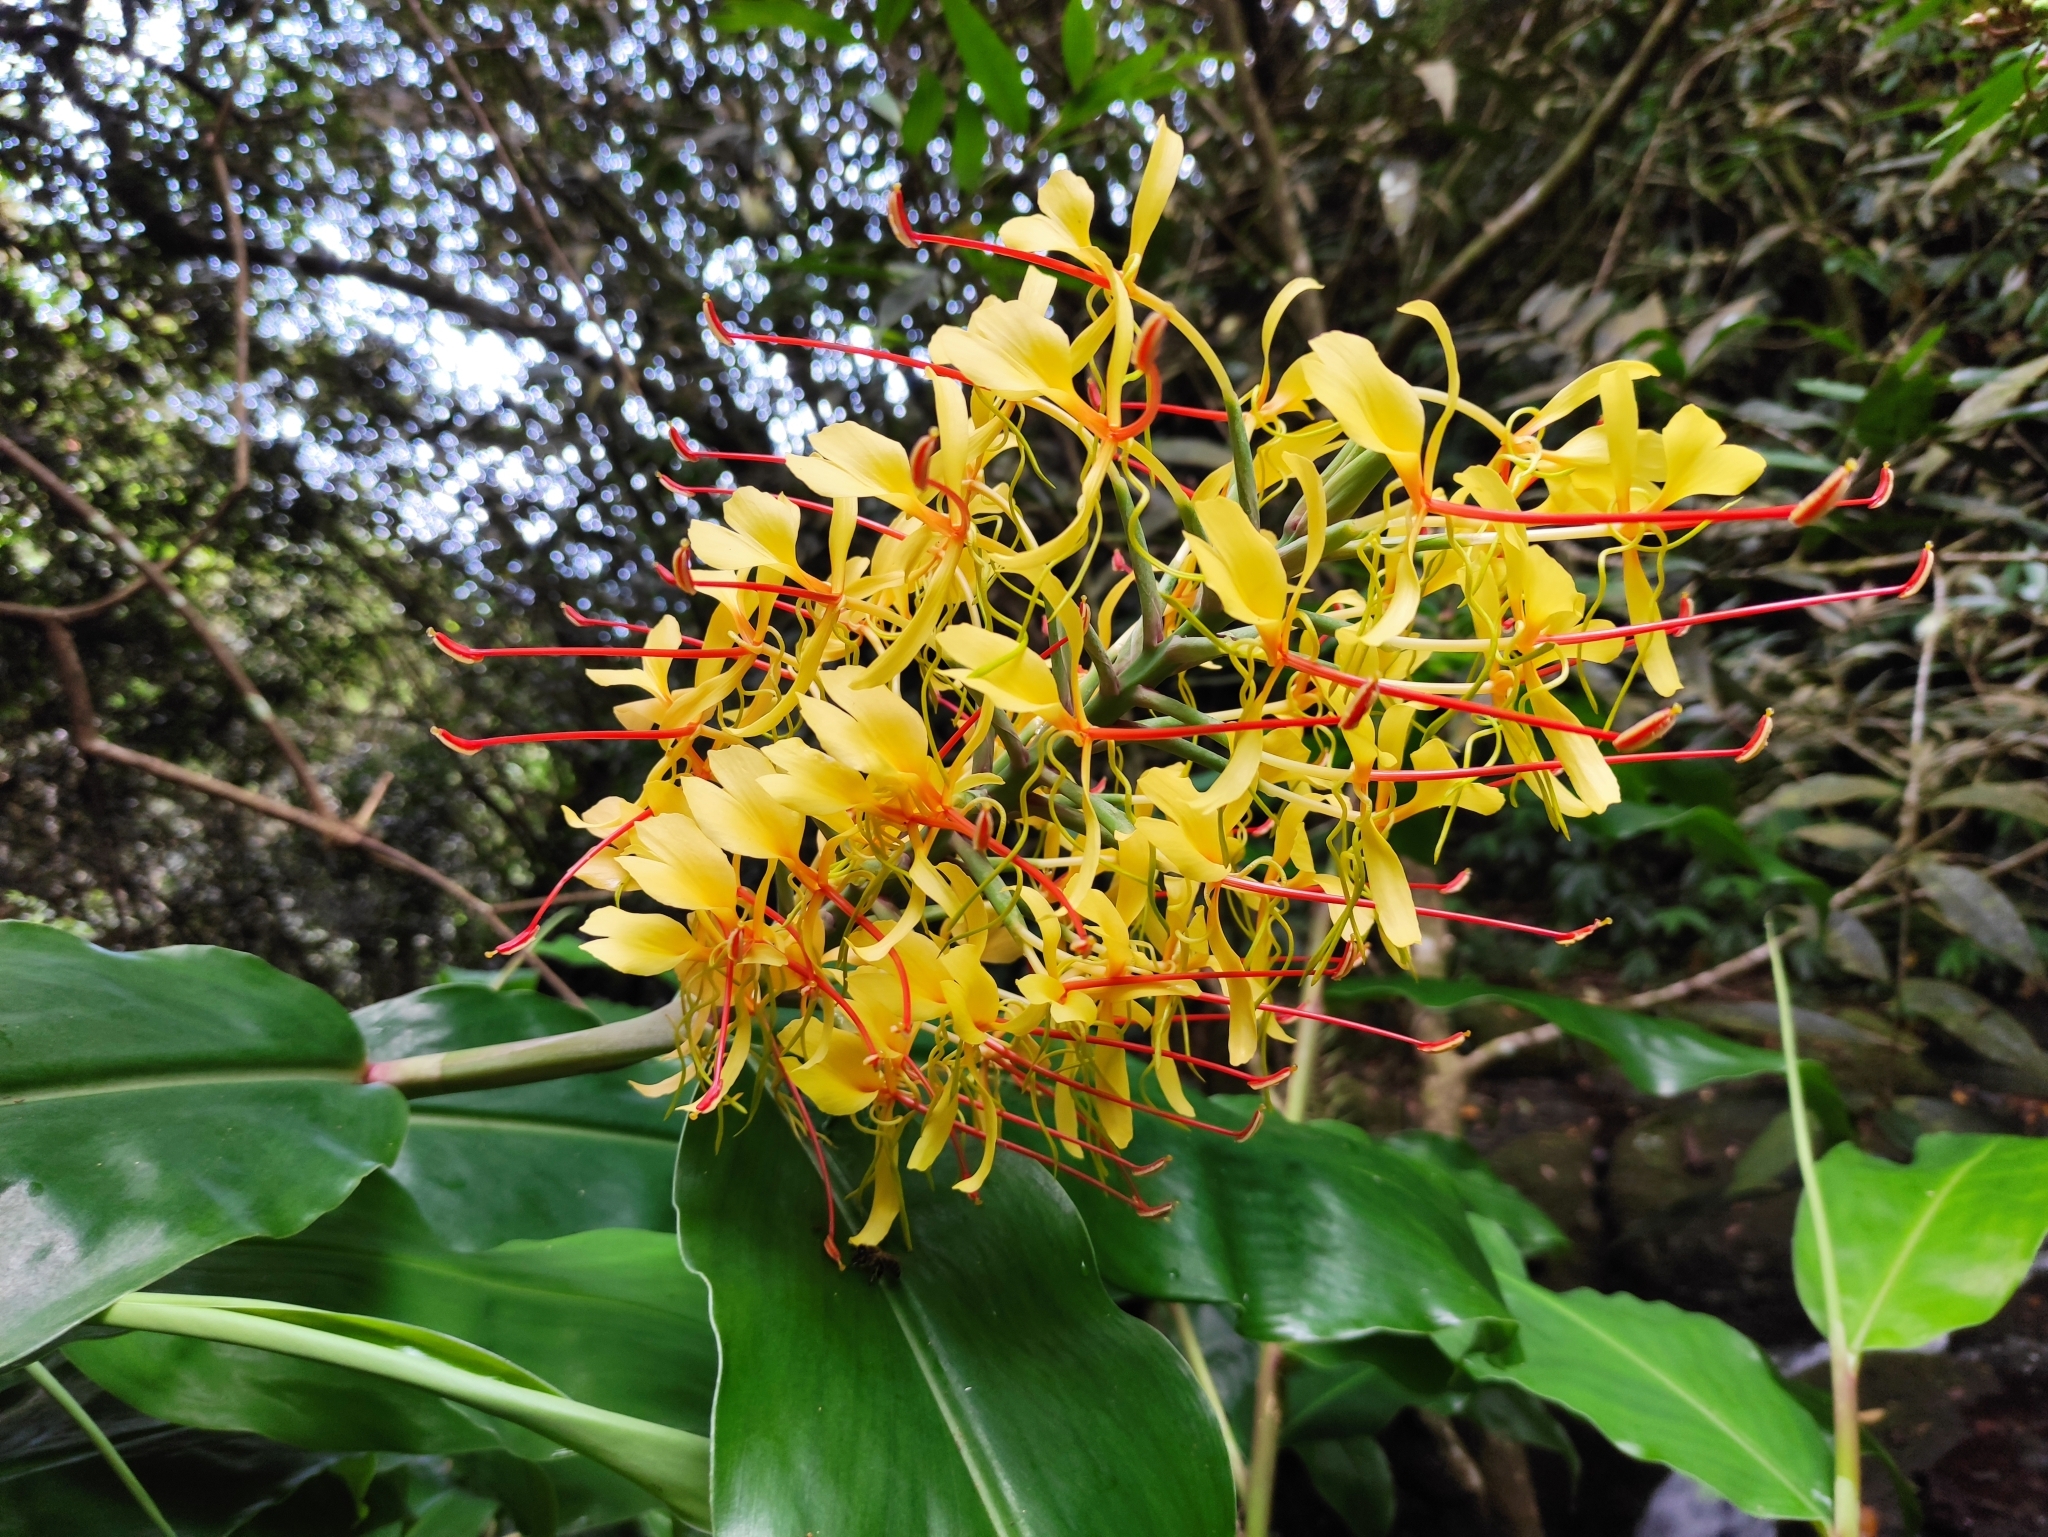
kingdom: Plantae
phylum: Tracheophyta
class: Liliopsida
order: Zingiberales
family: Zingiberaceae
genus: Hedychium
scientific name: Hedychium gardnerianum
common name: Himalayan ginger
